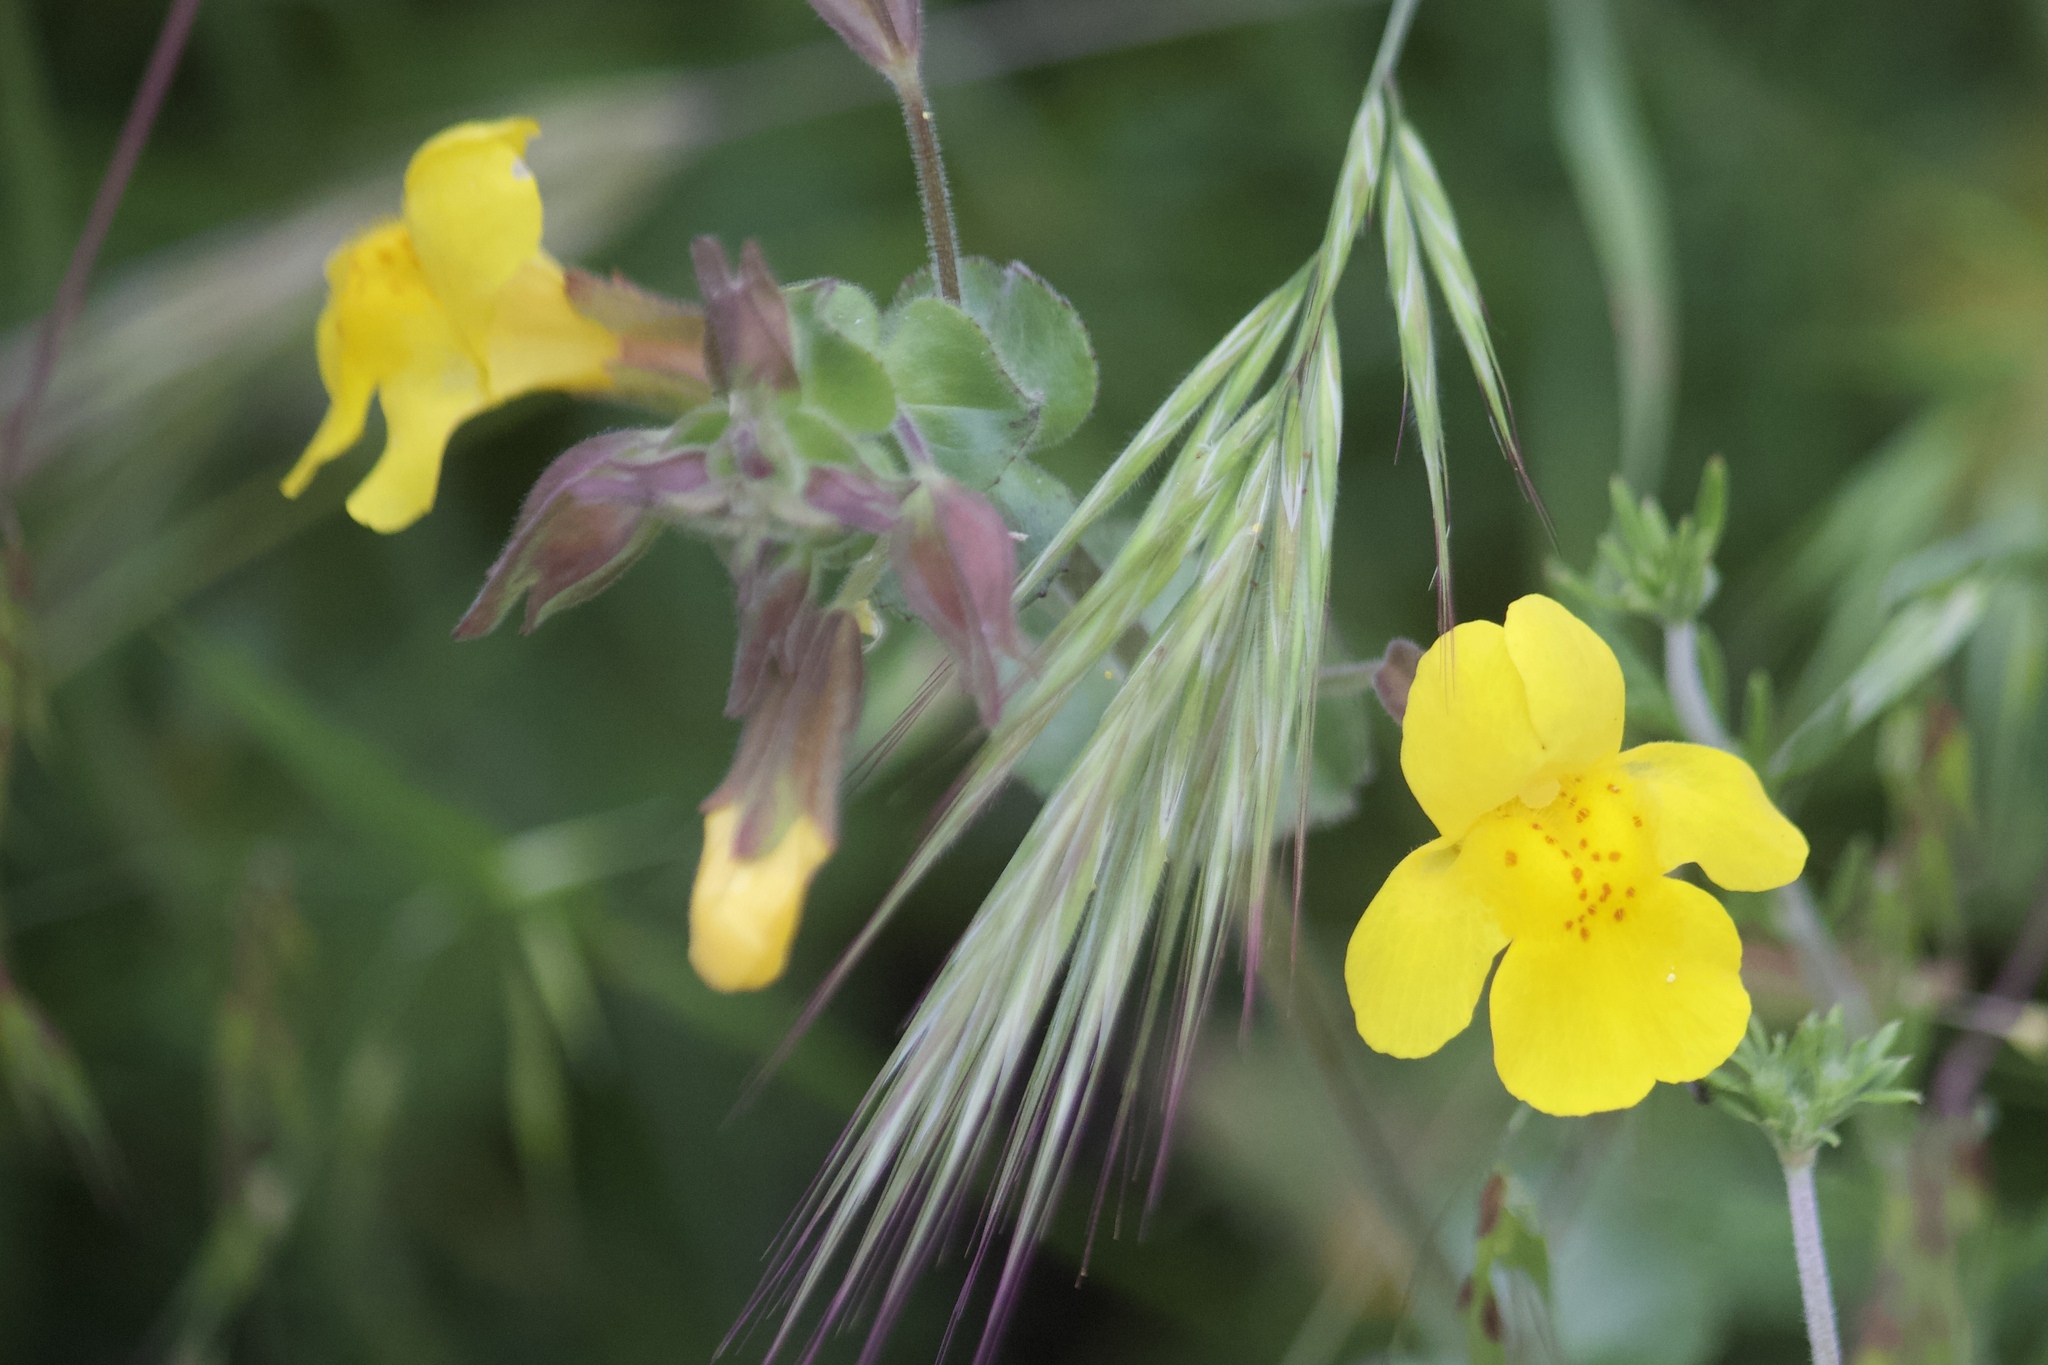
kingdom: Plantae
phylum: Tracheophyta
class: Magnoliopsida
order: Lamiales
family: Phrymaceae
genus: Erythranthe
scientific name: Erythranthe guttata
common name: Monkeyflower
